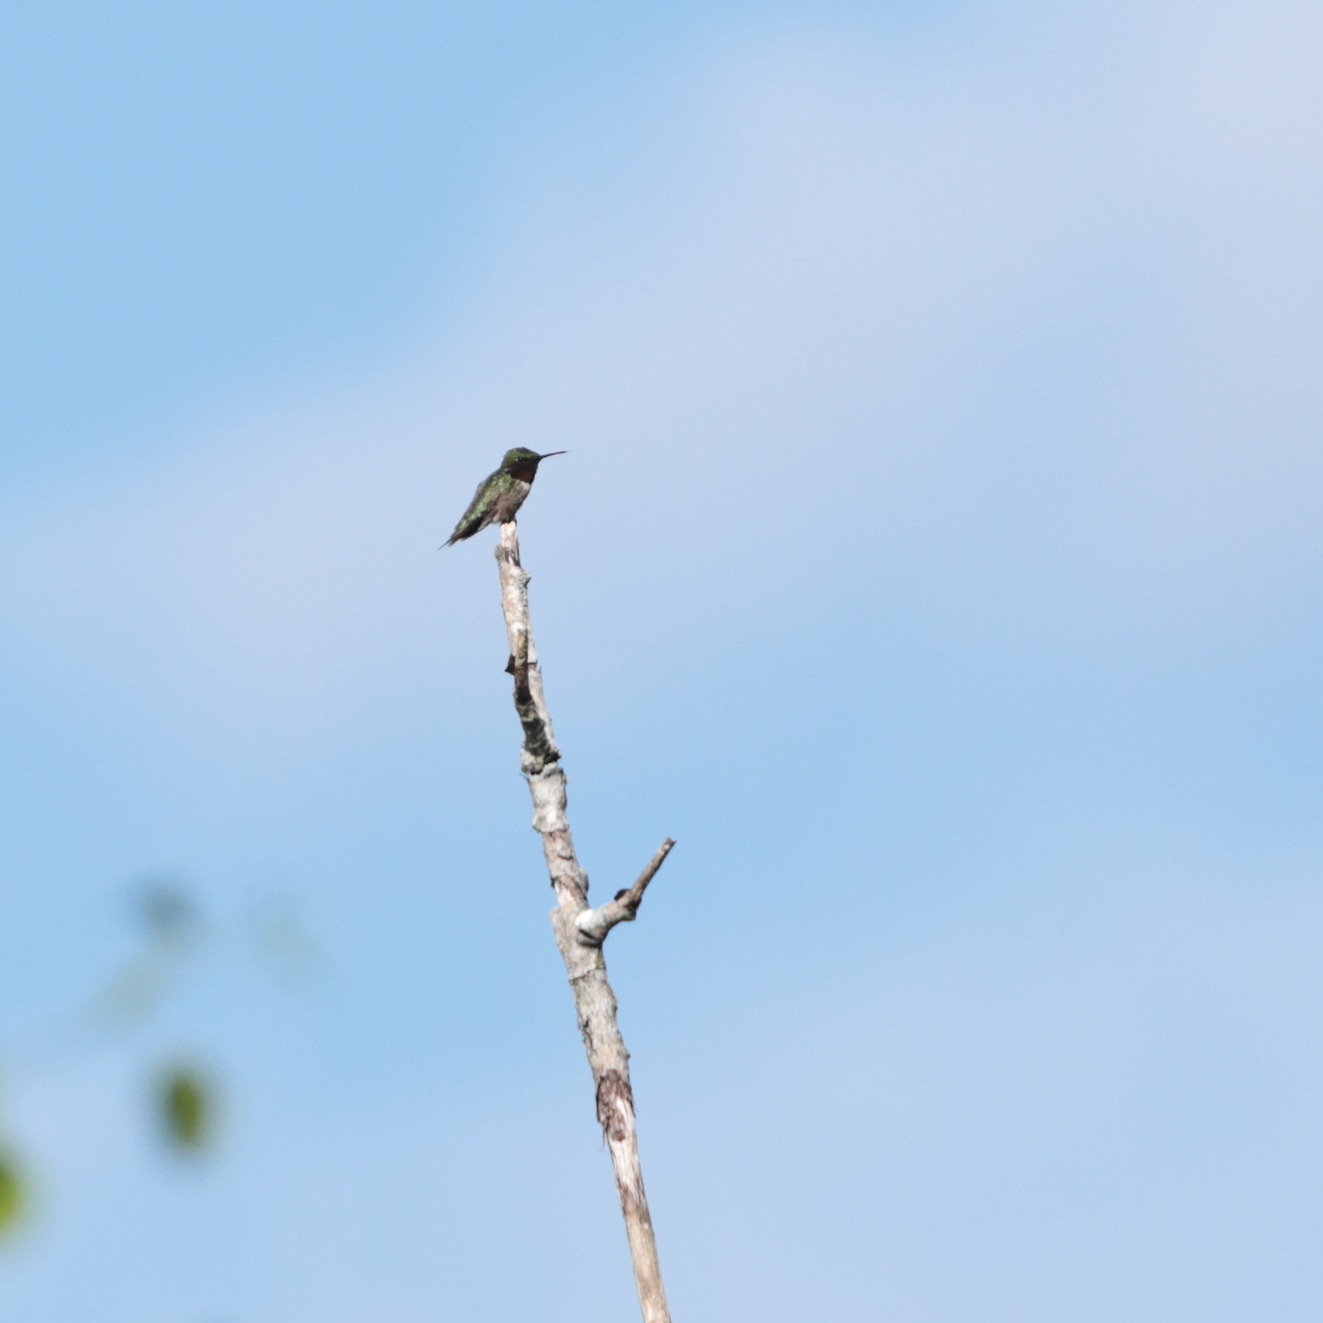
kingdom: Animalia
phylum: Chordata
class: Aves
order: Apodiformes
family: Trochilidae
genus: Archilochus
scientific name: Archilochus colubris
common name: Ruby-throated hummingbird
